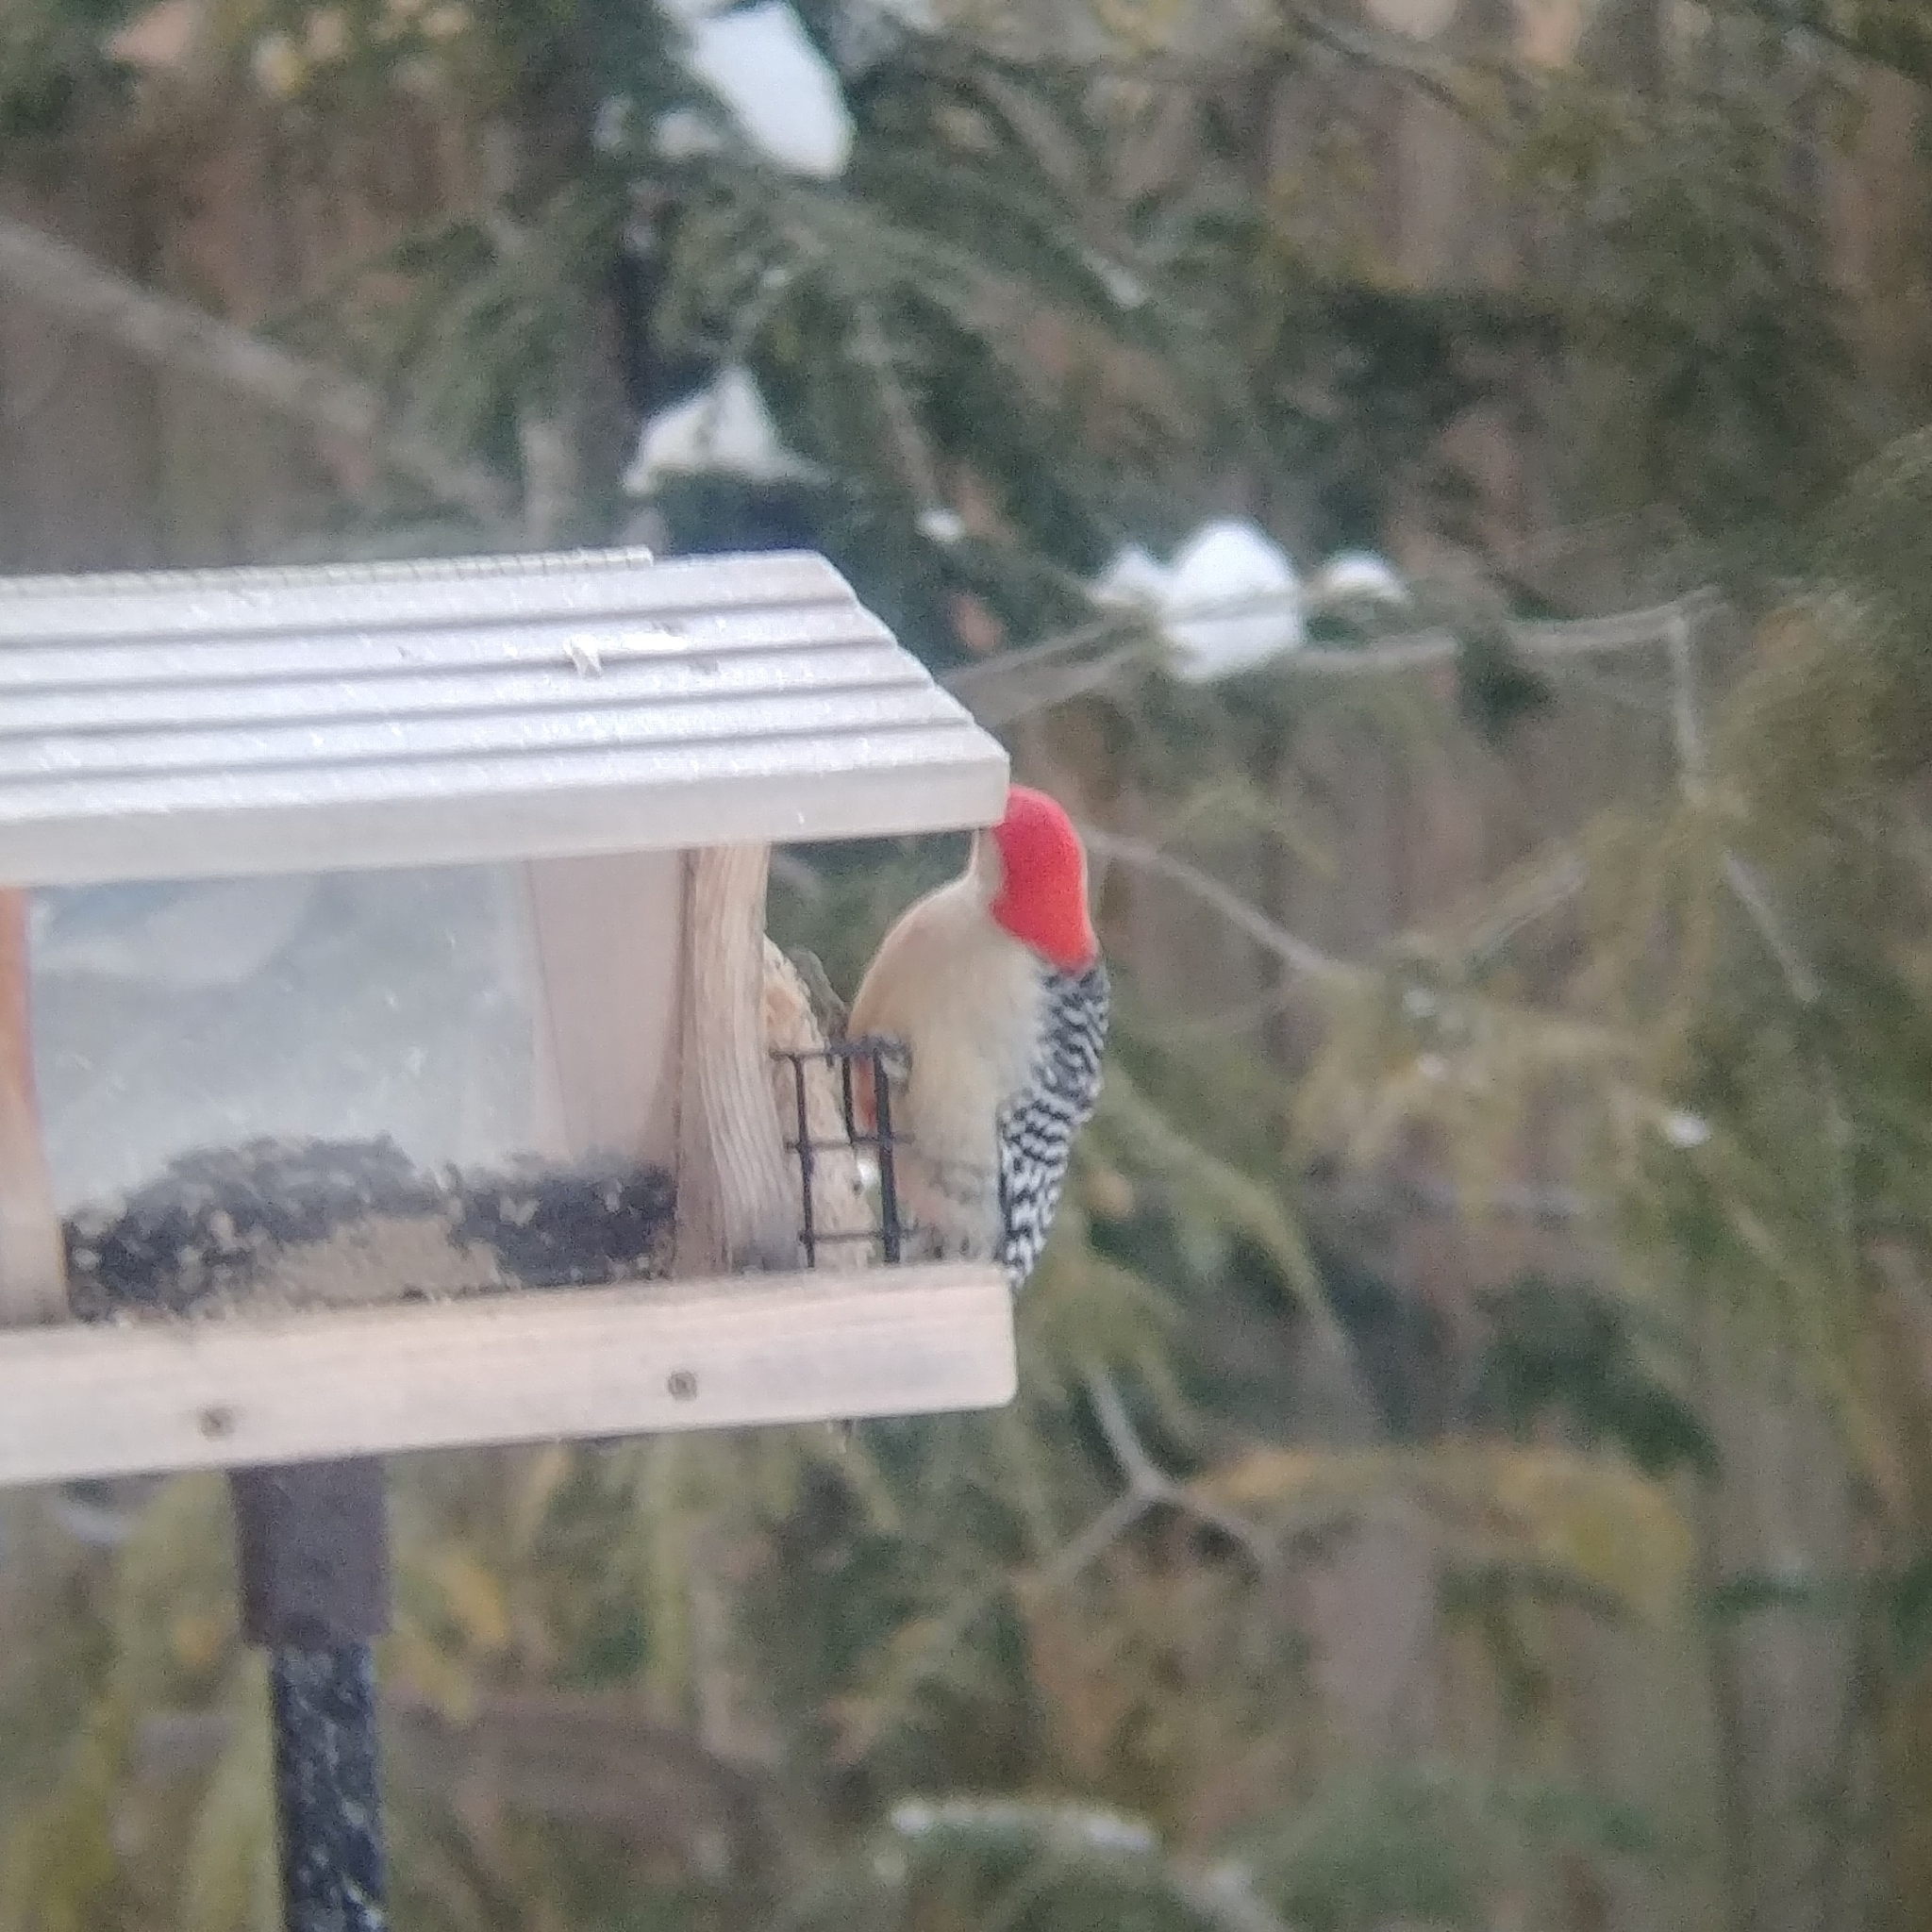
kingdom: Animalia
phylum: Chordata
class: Aves
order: Piciformes
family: Picidae
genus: Melanerpes
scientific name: Melanerpes carolinus
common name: Red-bellied woodpecker
